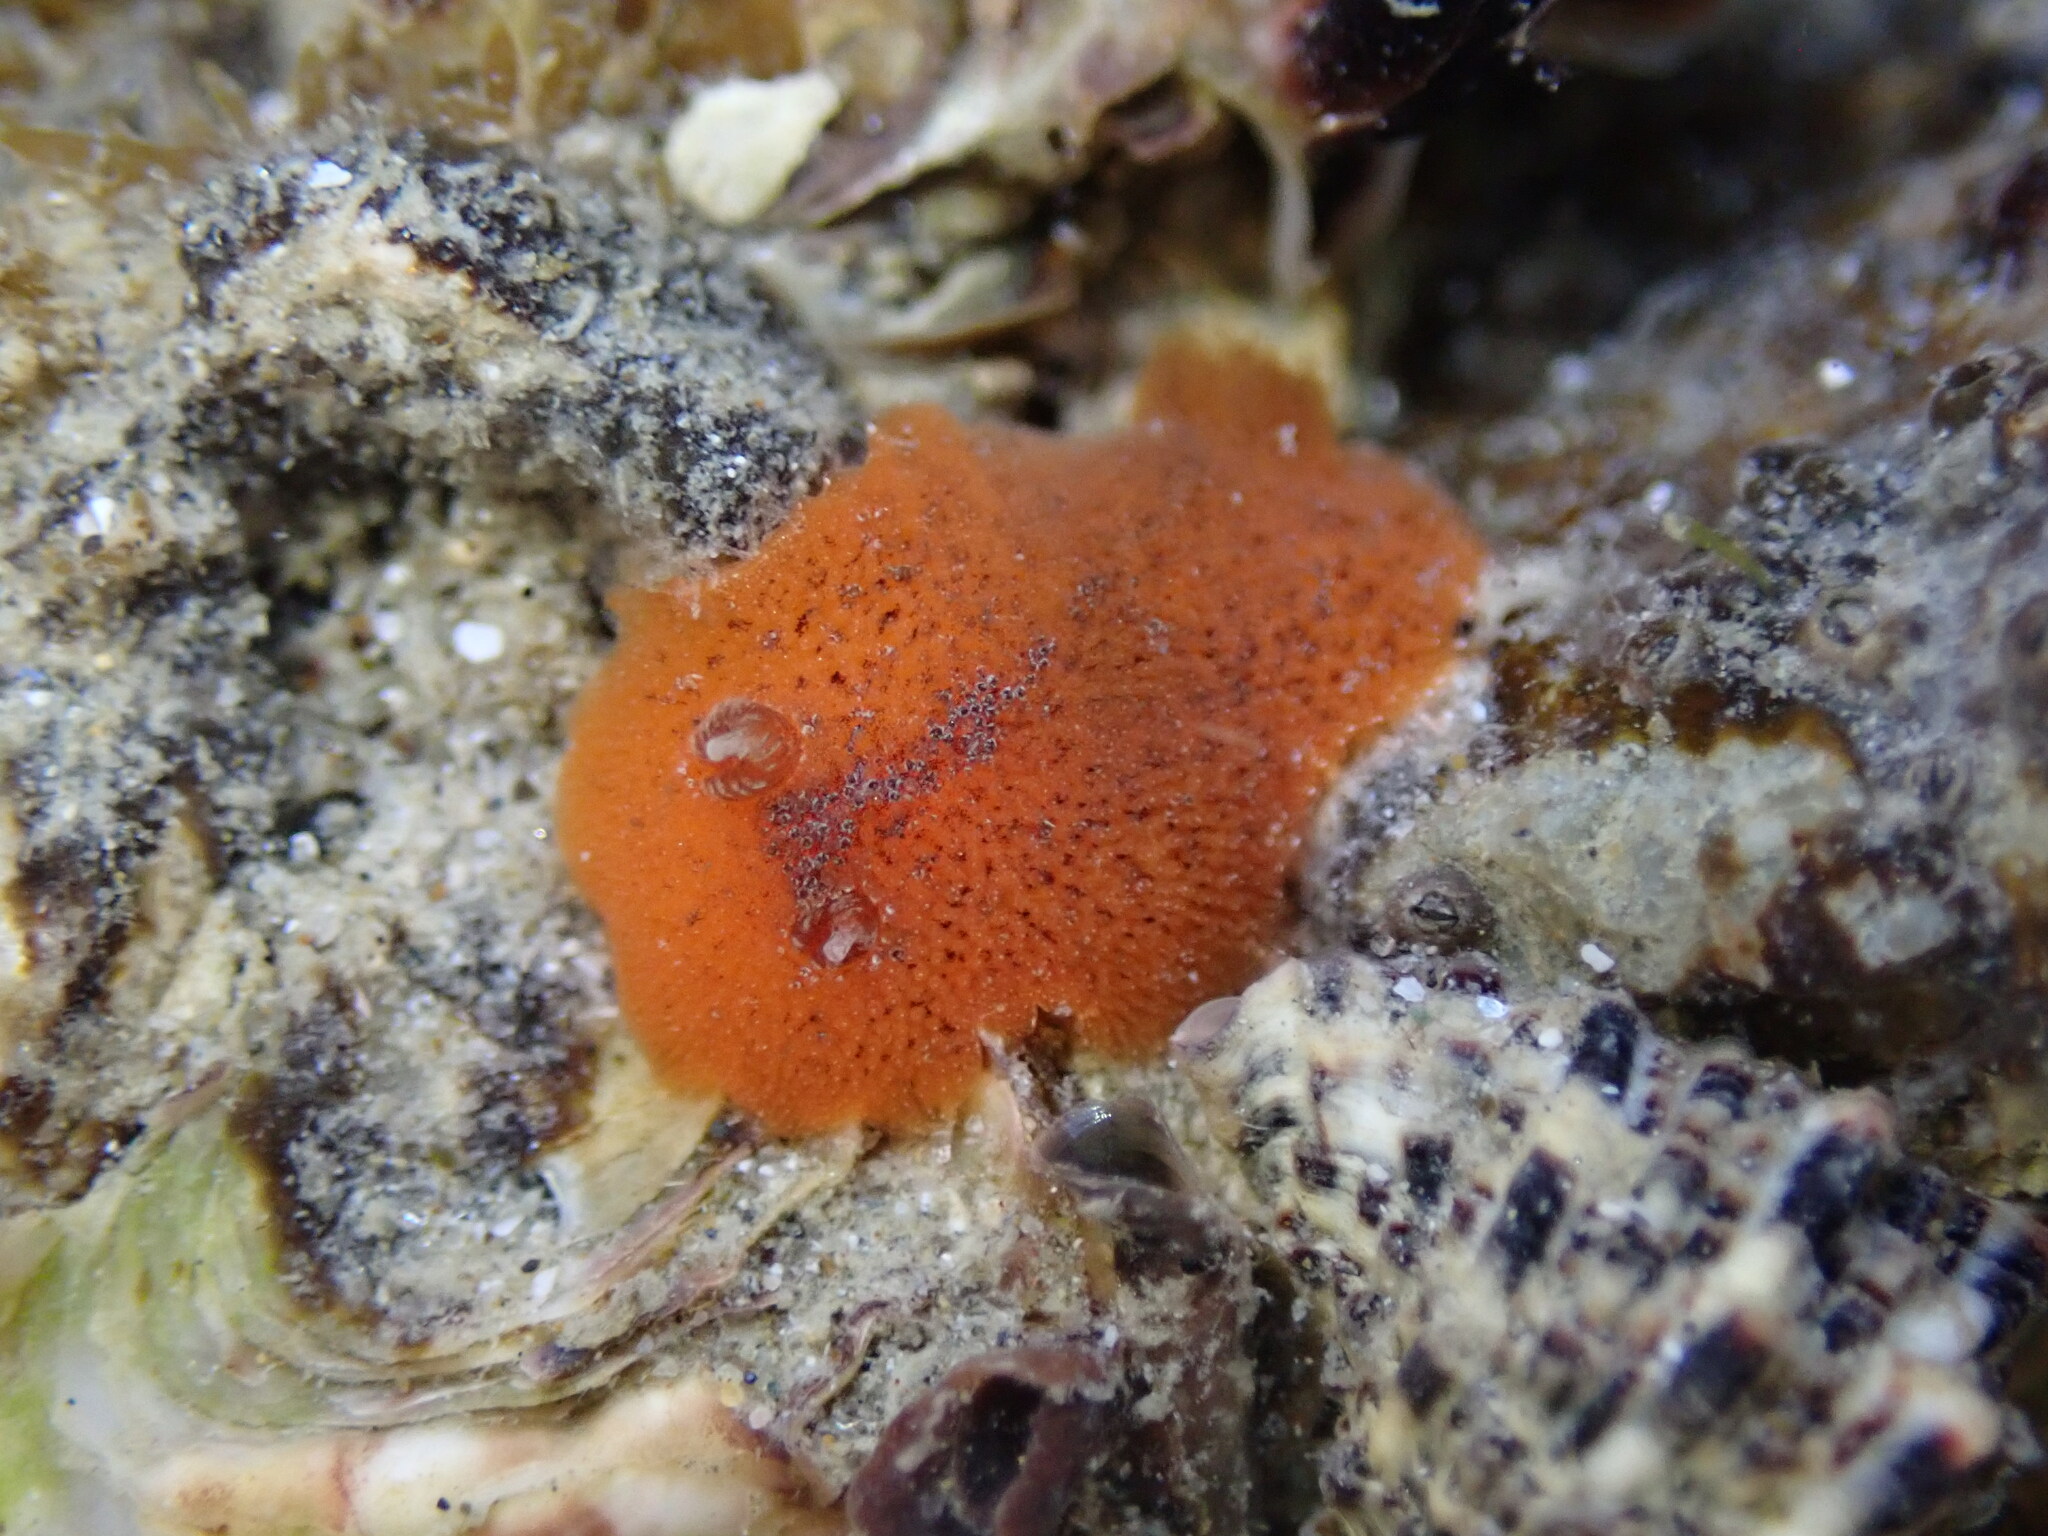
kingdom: Animalia
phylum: Mollusca
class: Gastropoda
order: Nudibranchia
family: Discodorididae
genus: Rostanga
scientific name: Rostanga muscula
